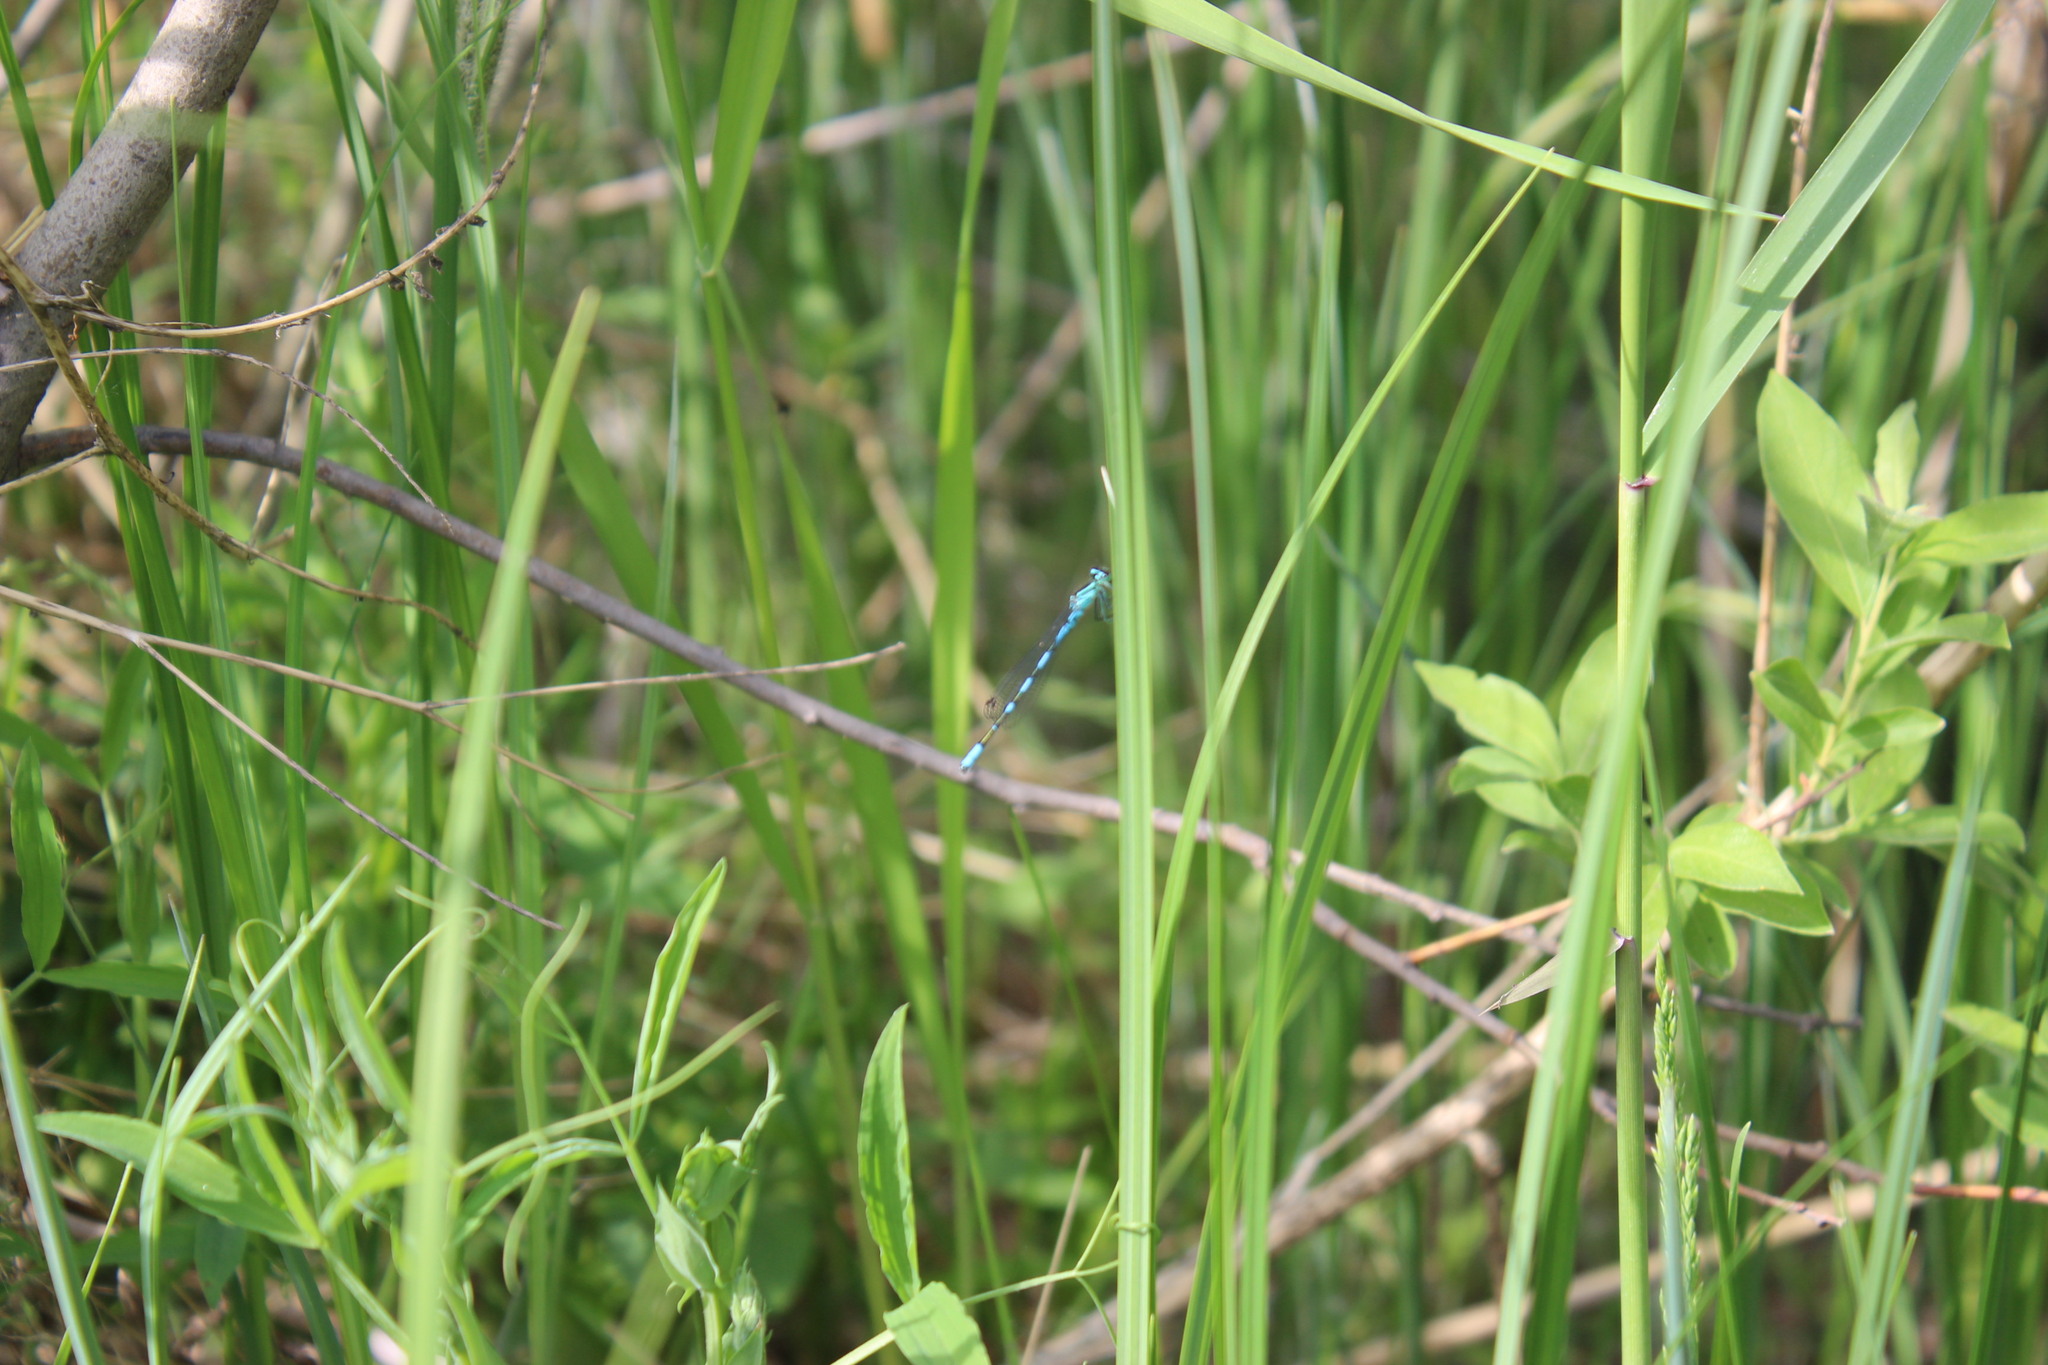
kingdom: Animalia
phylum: Arthropoda
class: Insecta
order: Odonata
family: Coenagrionidae
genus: Coenagrion
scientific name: Coenagrion hastulatum
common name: Spearhead bluet
